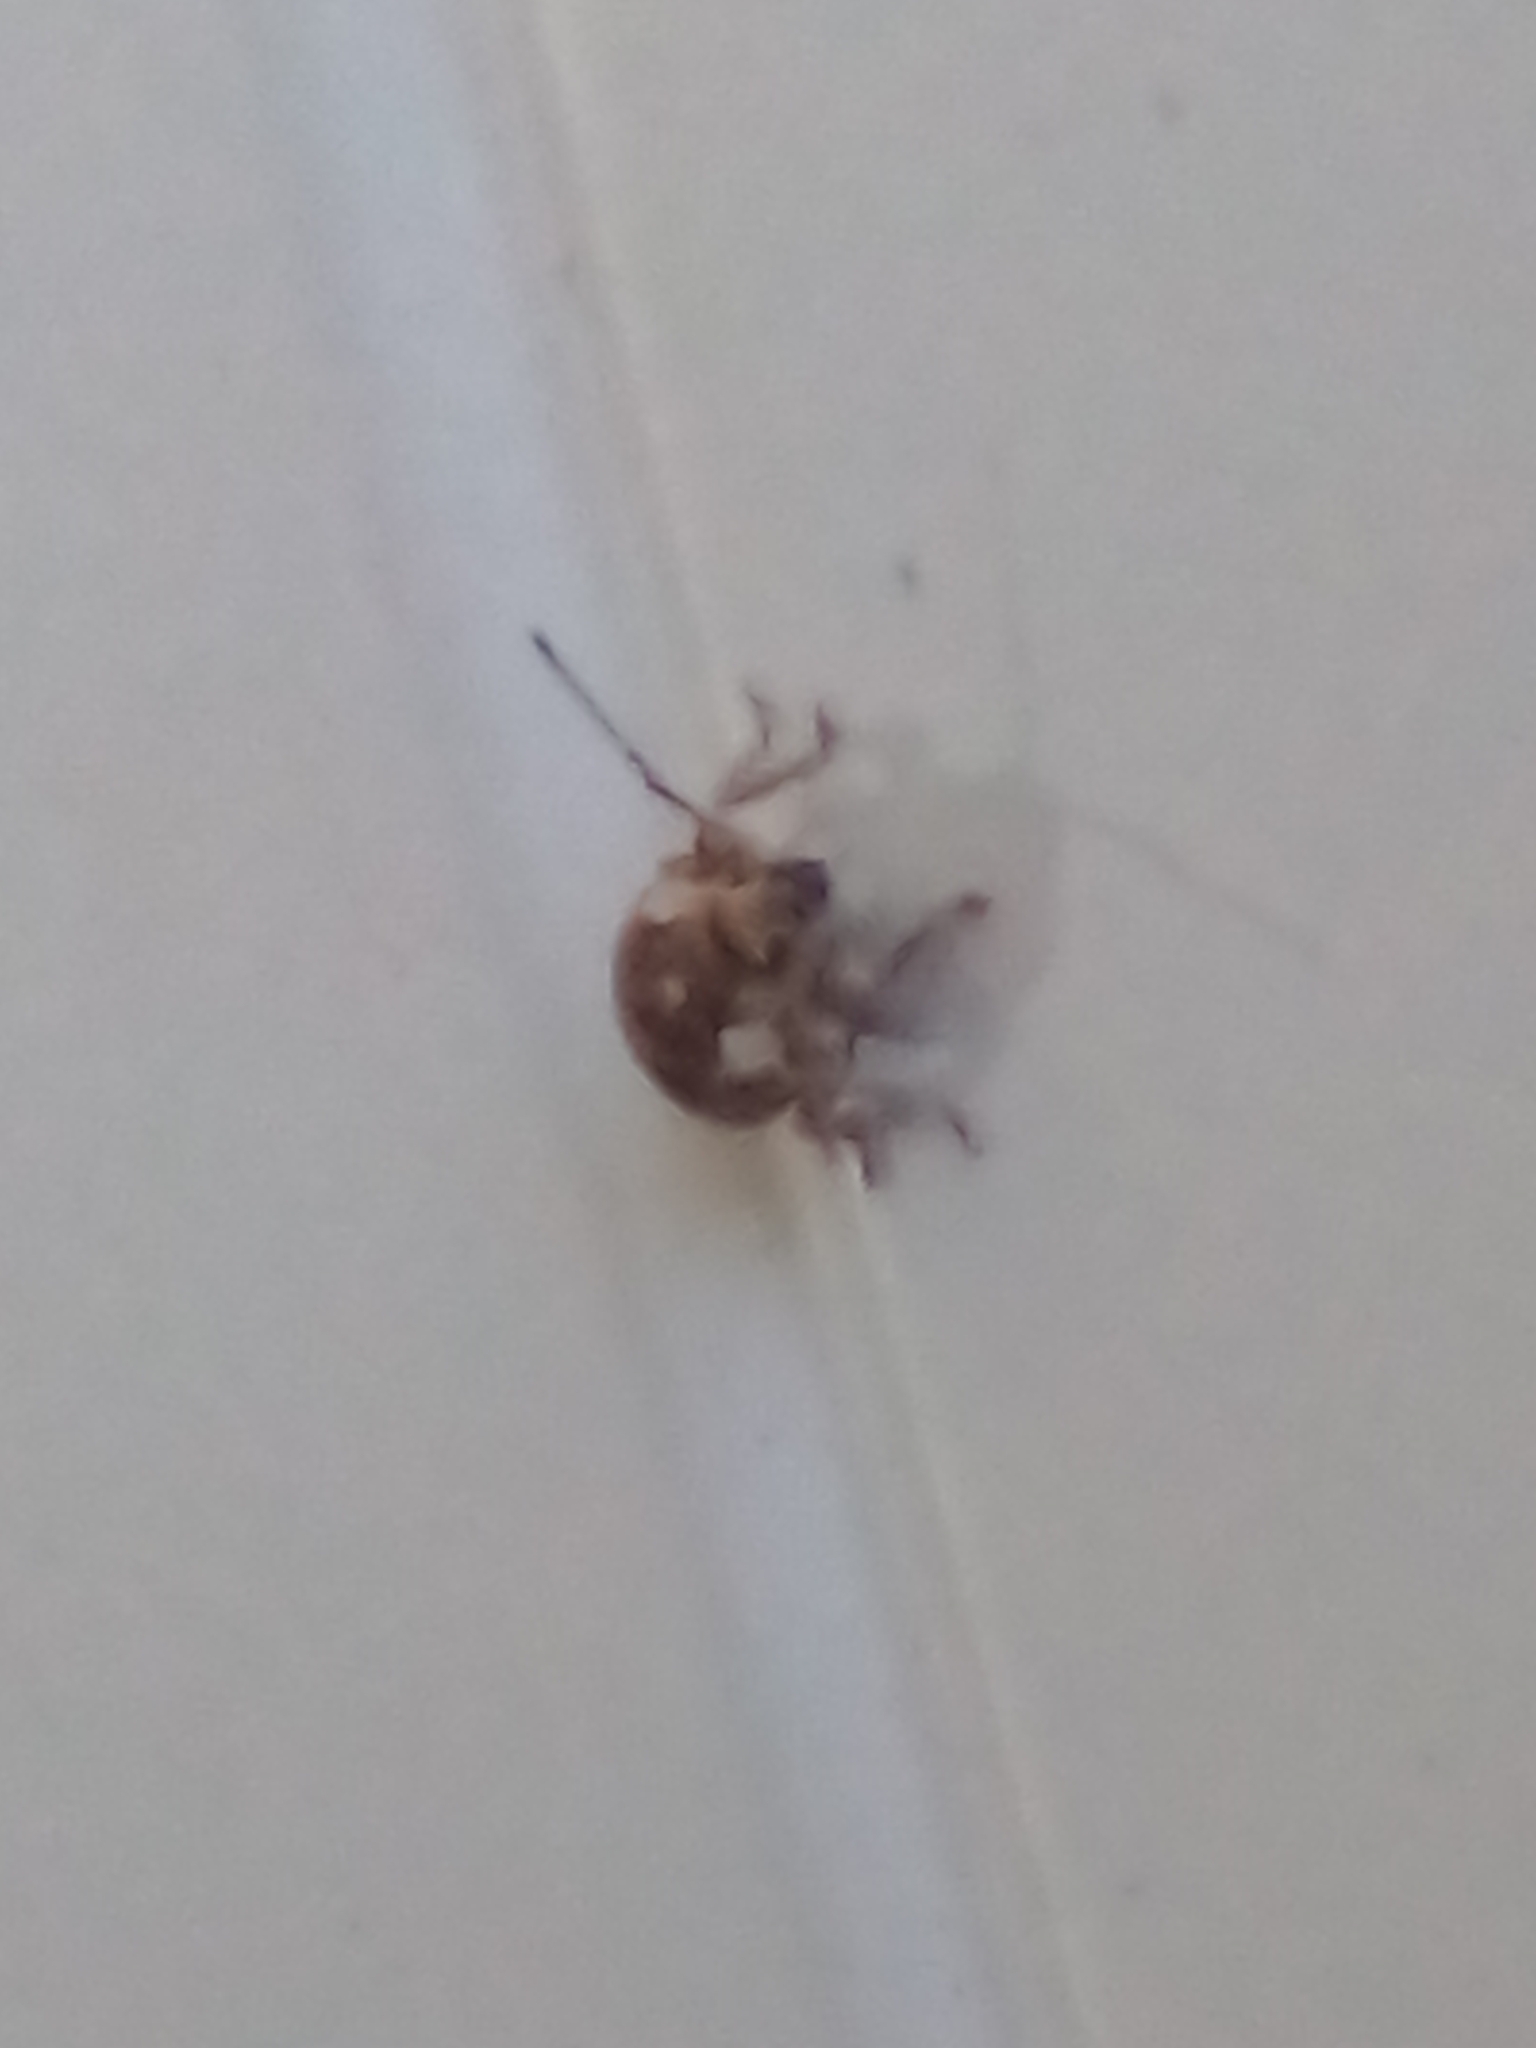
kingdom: Animalia
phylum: Arthropoda
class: Insecta
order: Coleoptera
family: Curculionidae
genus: Ellimenistes
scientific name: Ellimenistes laesicollis
